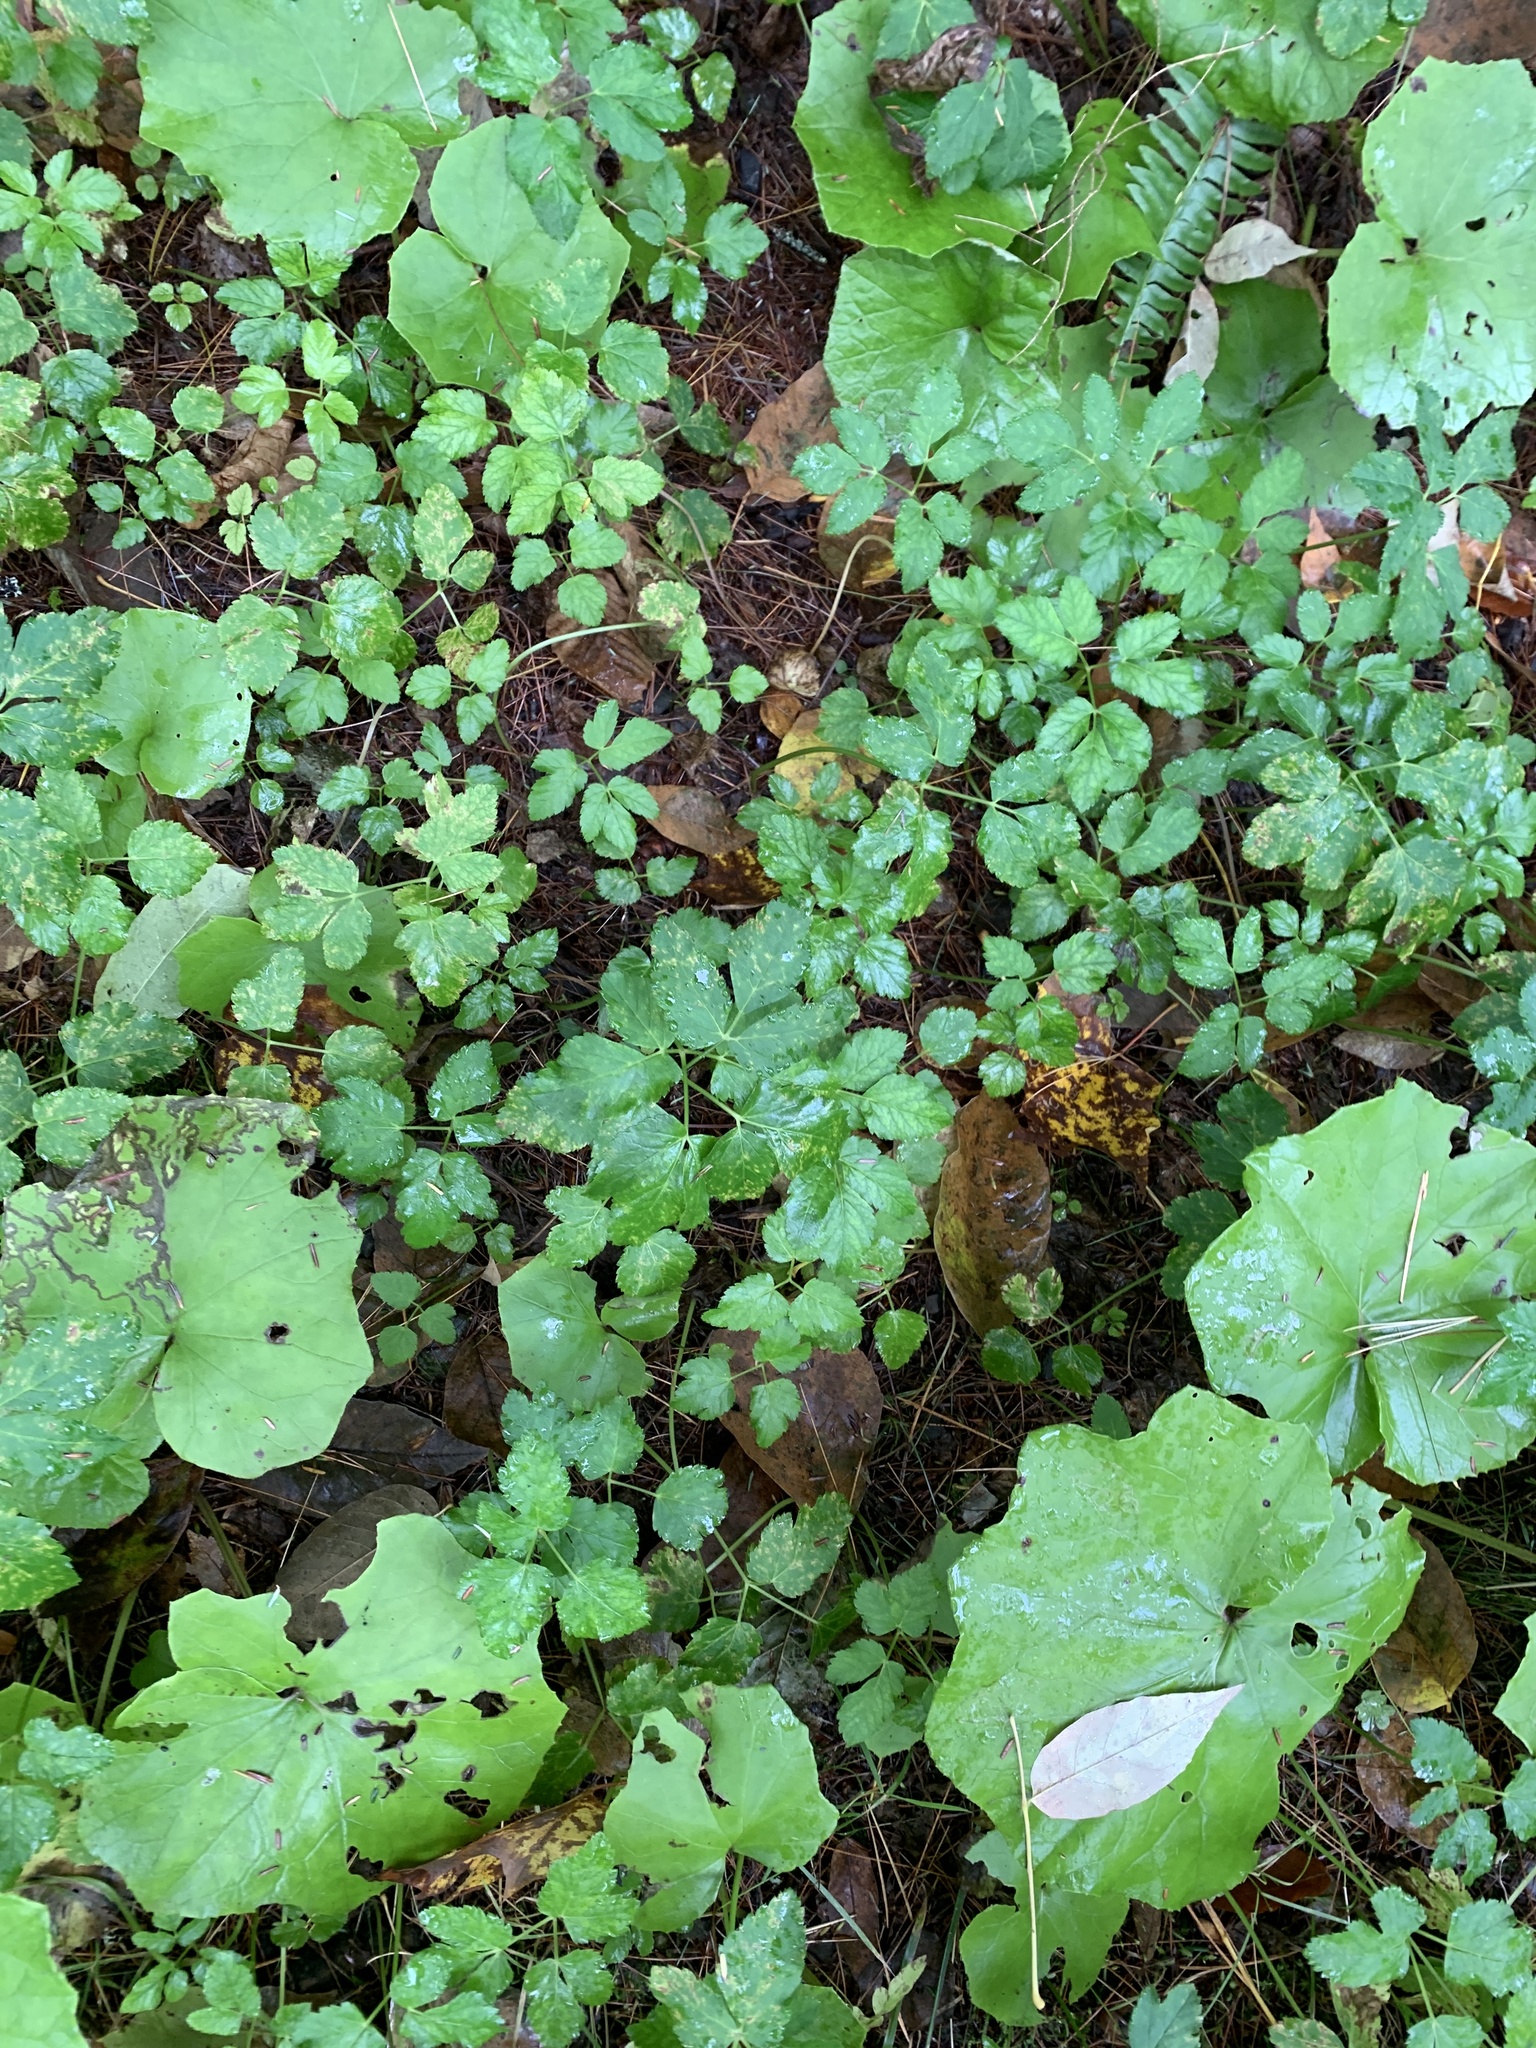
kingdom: Plantae
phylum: Tracheophyta
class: Magnoliopsida
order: Apiales
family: Apiaceae
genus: Aegopodium
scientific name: Aegopodium podagraria
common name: Ground-elder
